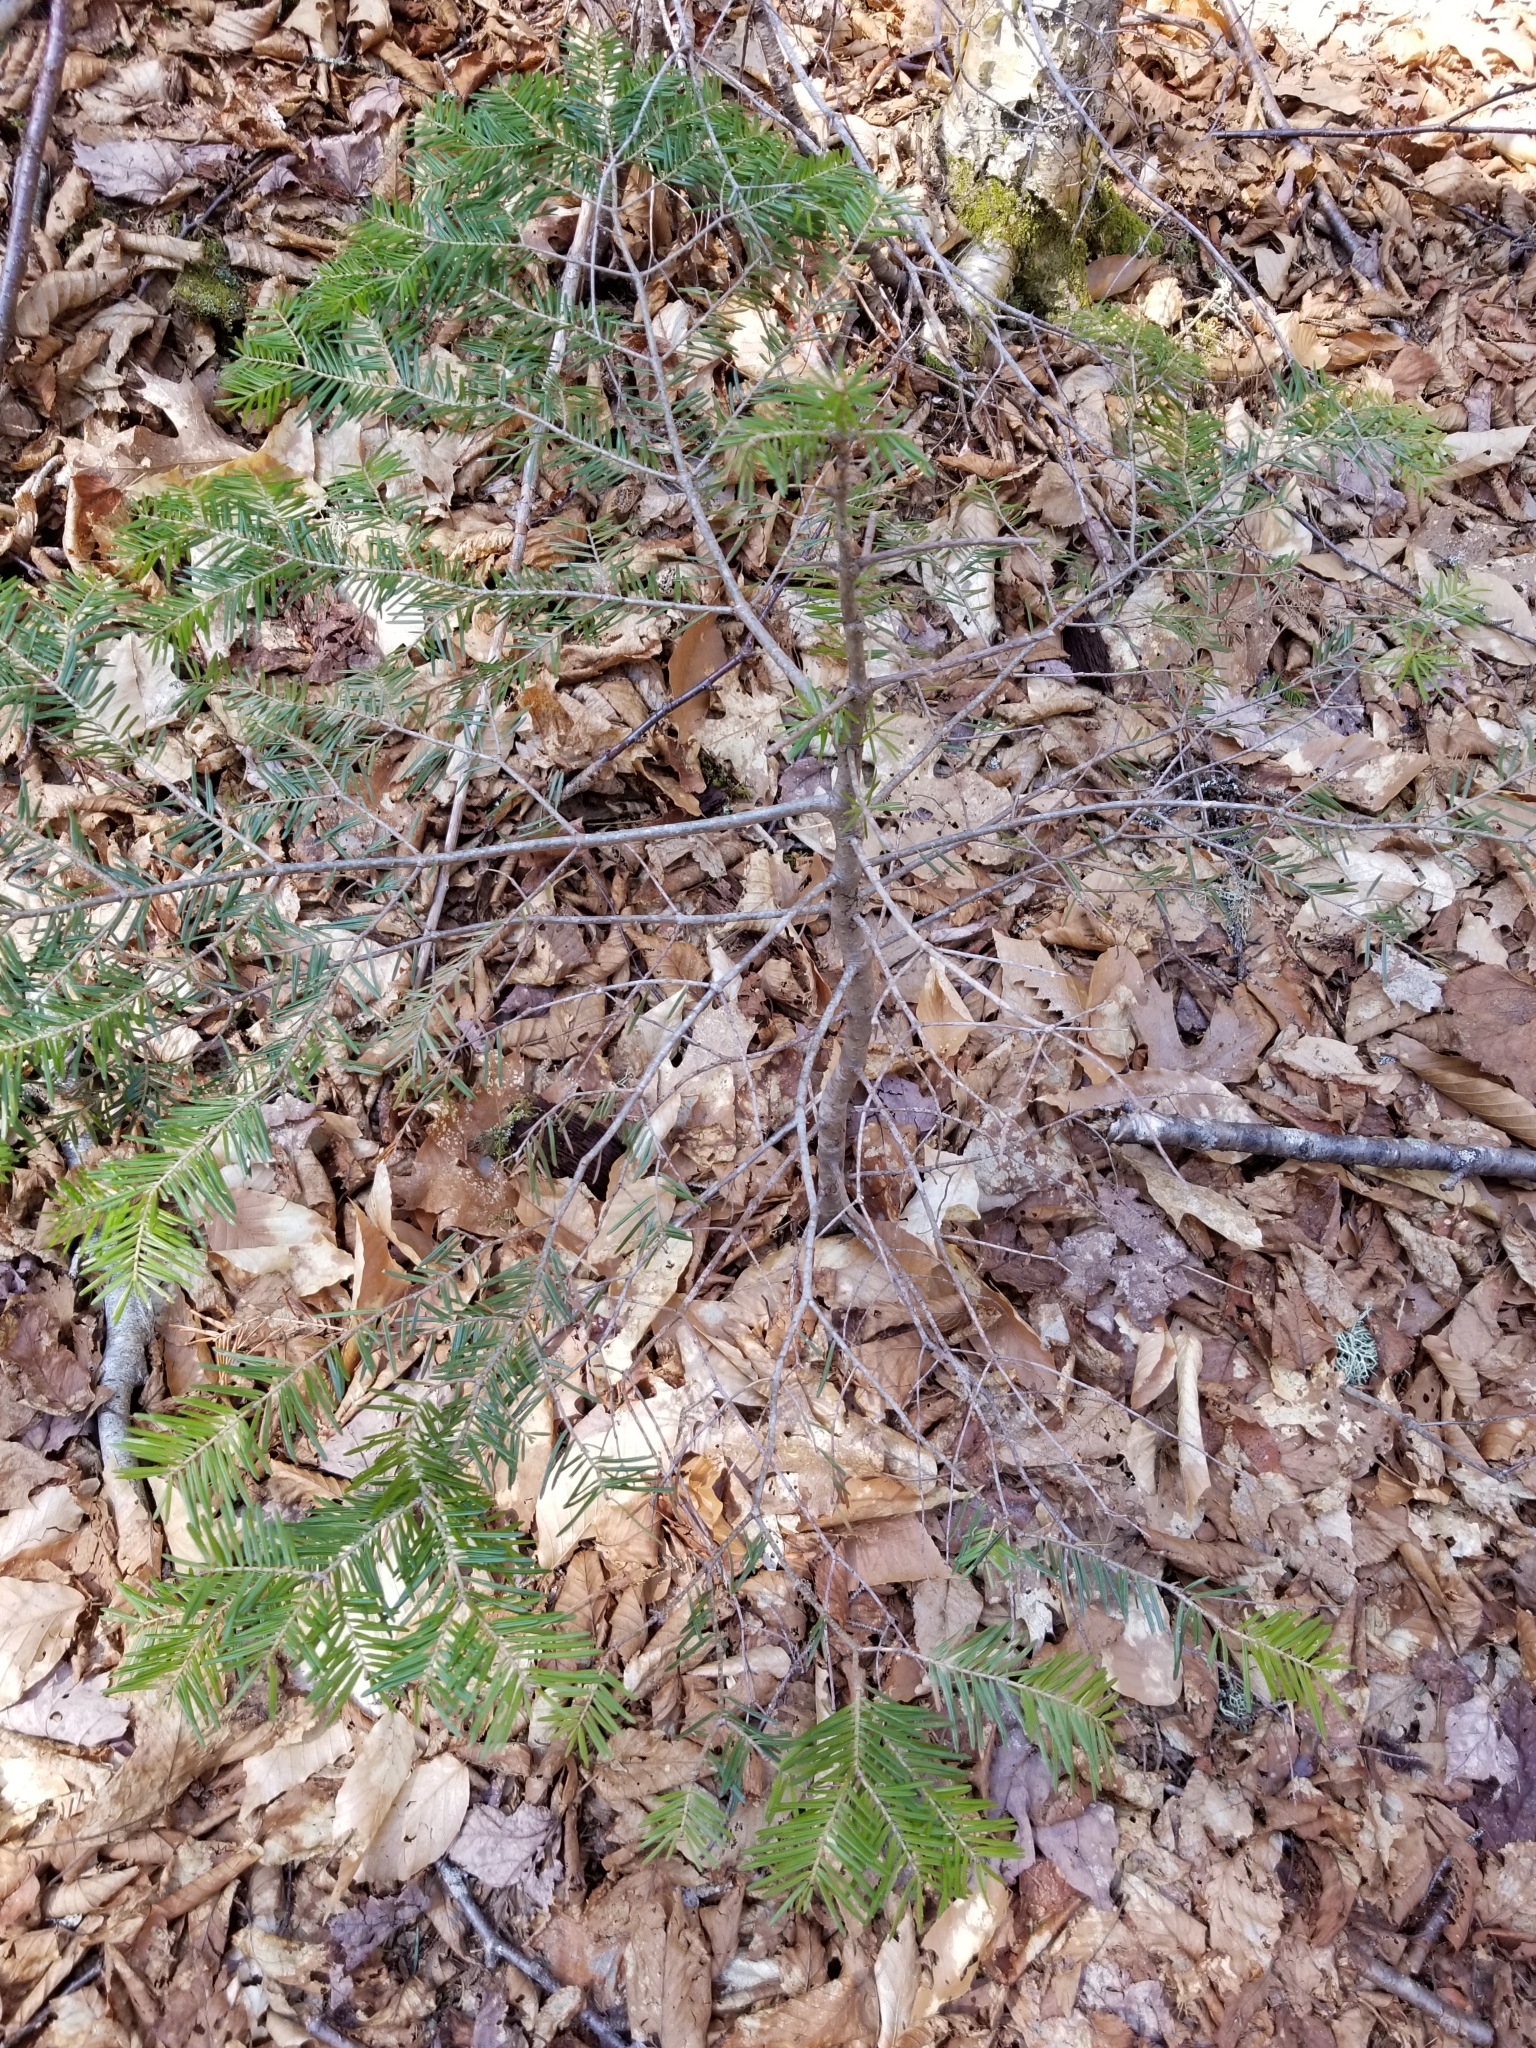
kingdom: Plantae
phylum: Tracheophyta
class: Pinopsida
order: Pinales
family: Pinaceae
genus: Abies
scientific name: Abies balsamea
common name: Balsam fir
